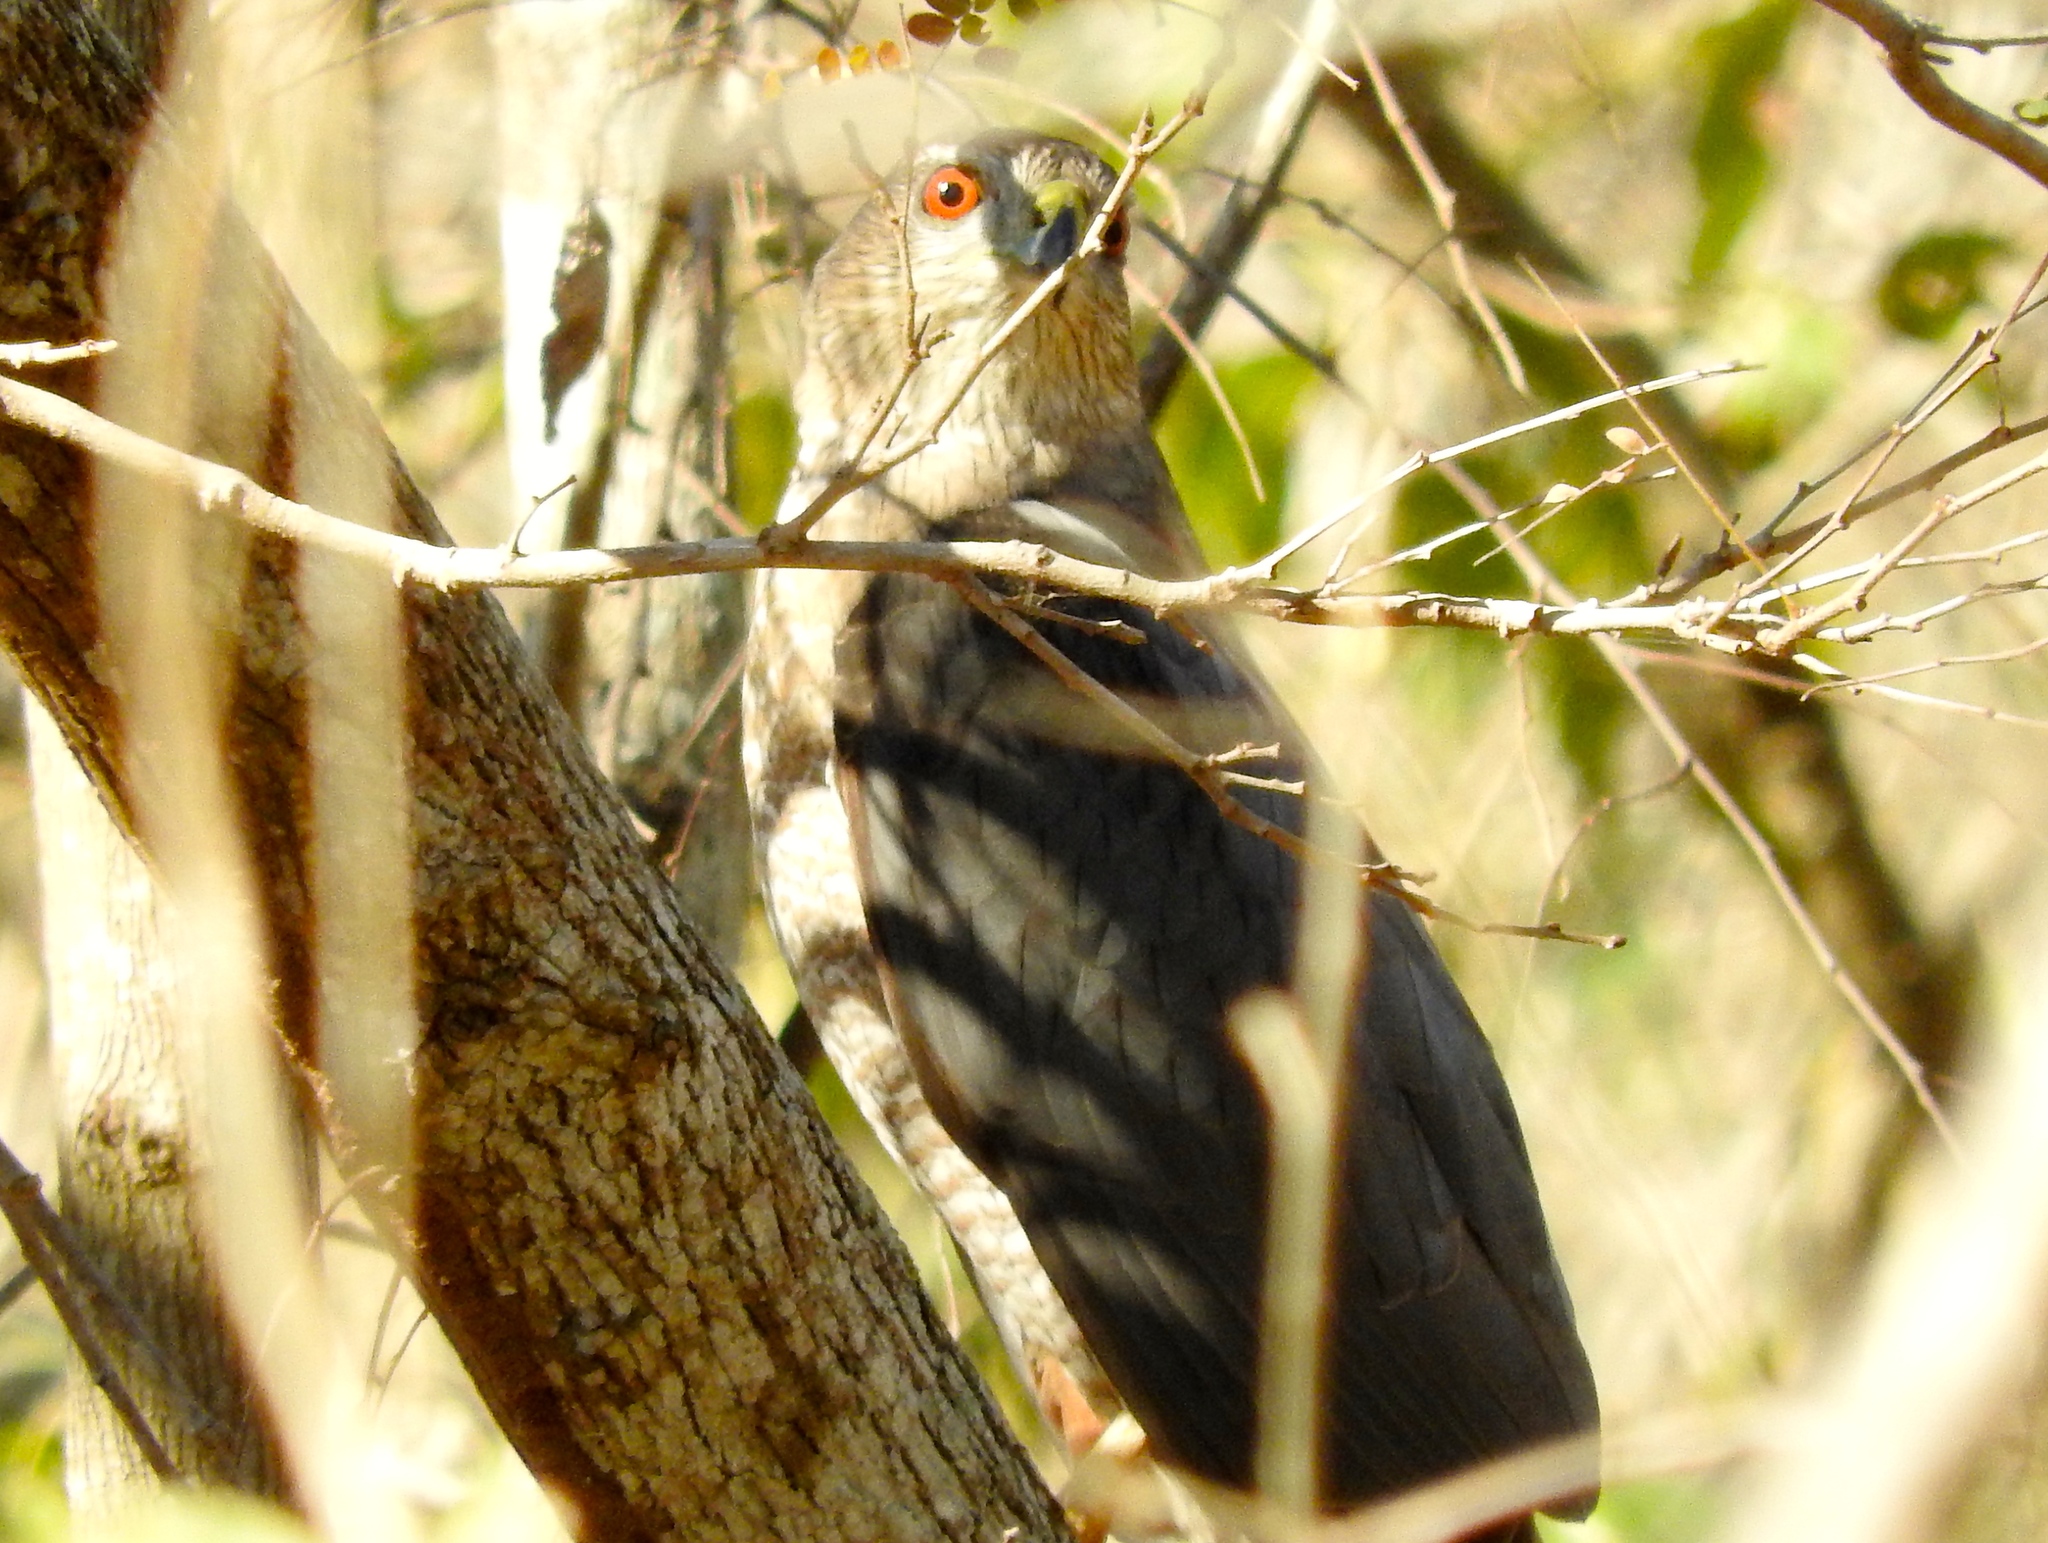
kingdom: Animalia
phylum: Chordata
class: Aves
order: Accipitriformes
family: Accipitridae
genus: Accipiter
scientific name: Accipiter cooperii
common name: Cooper's hawk
